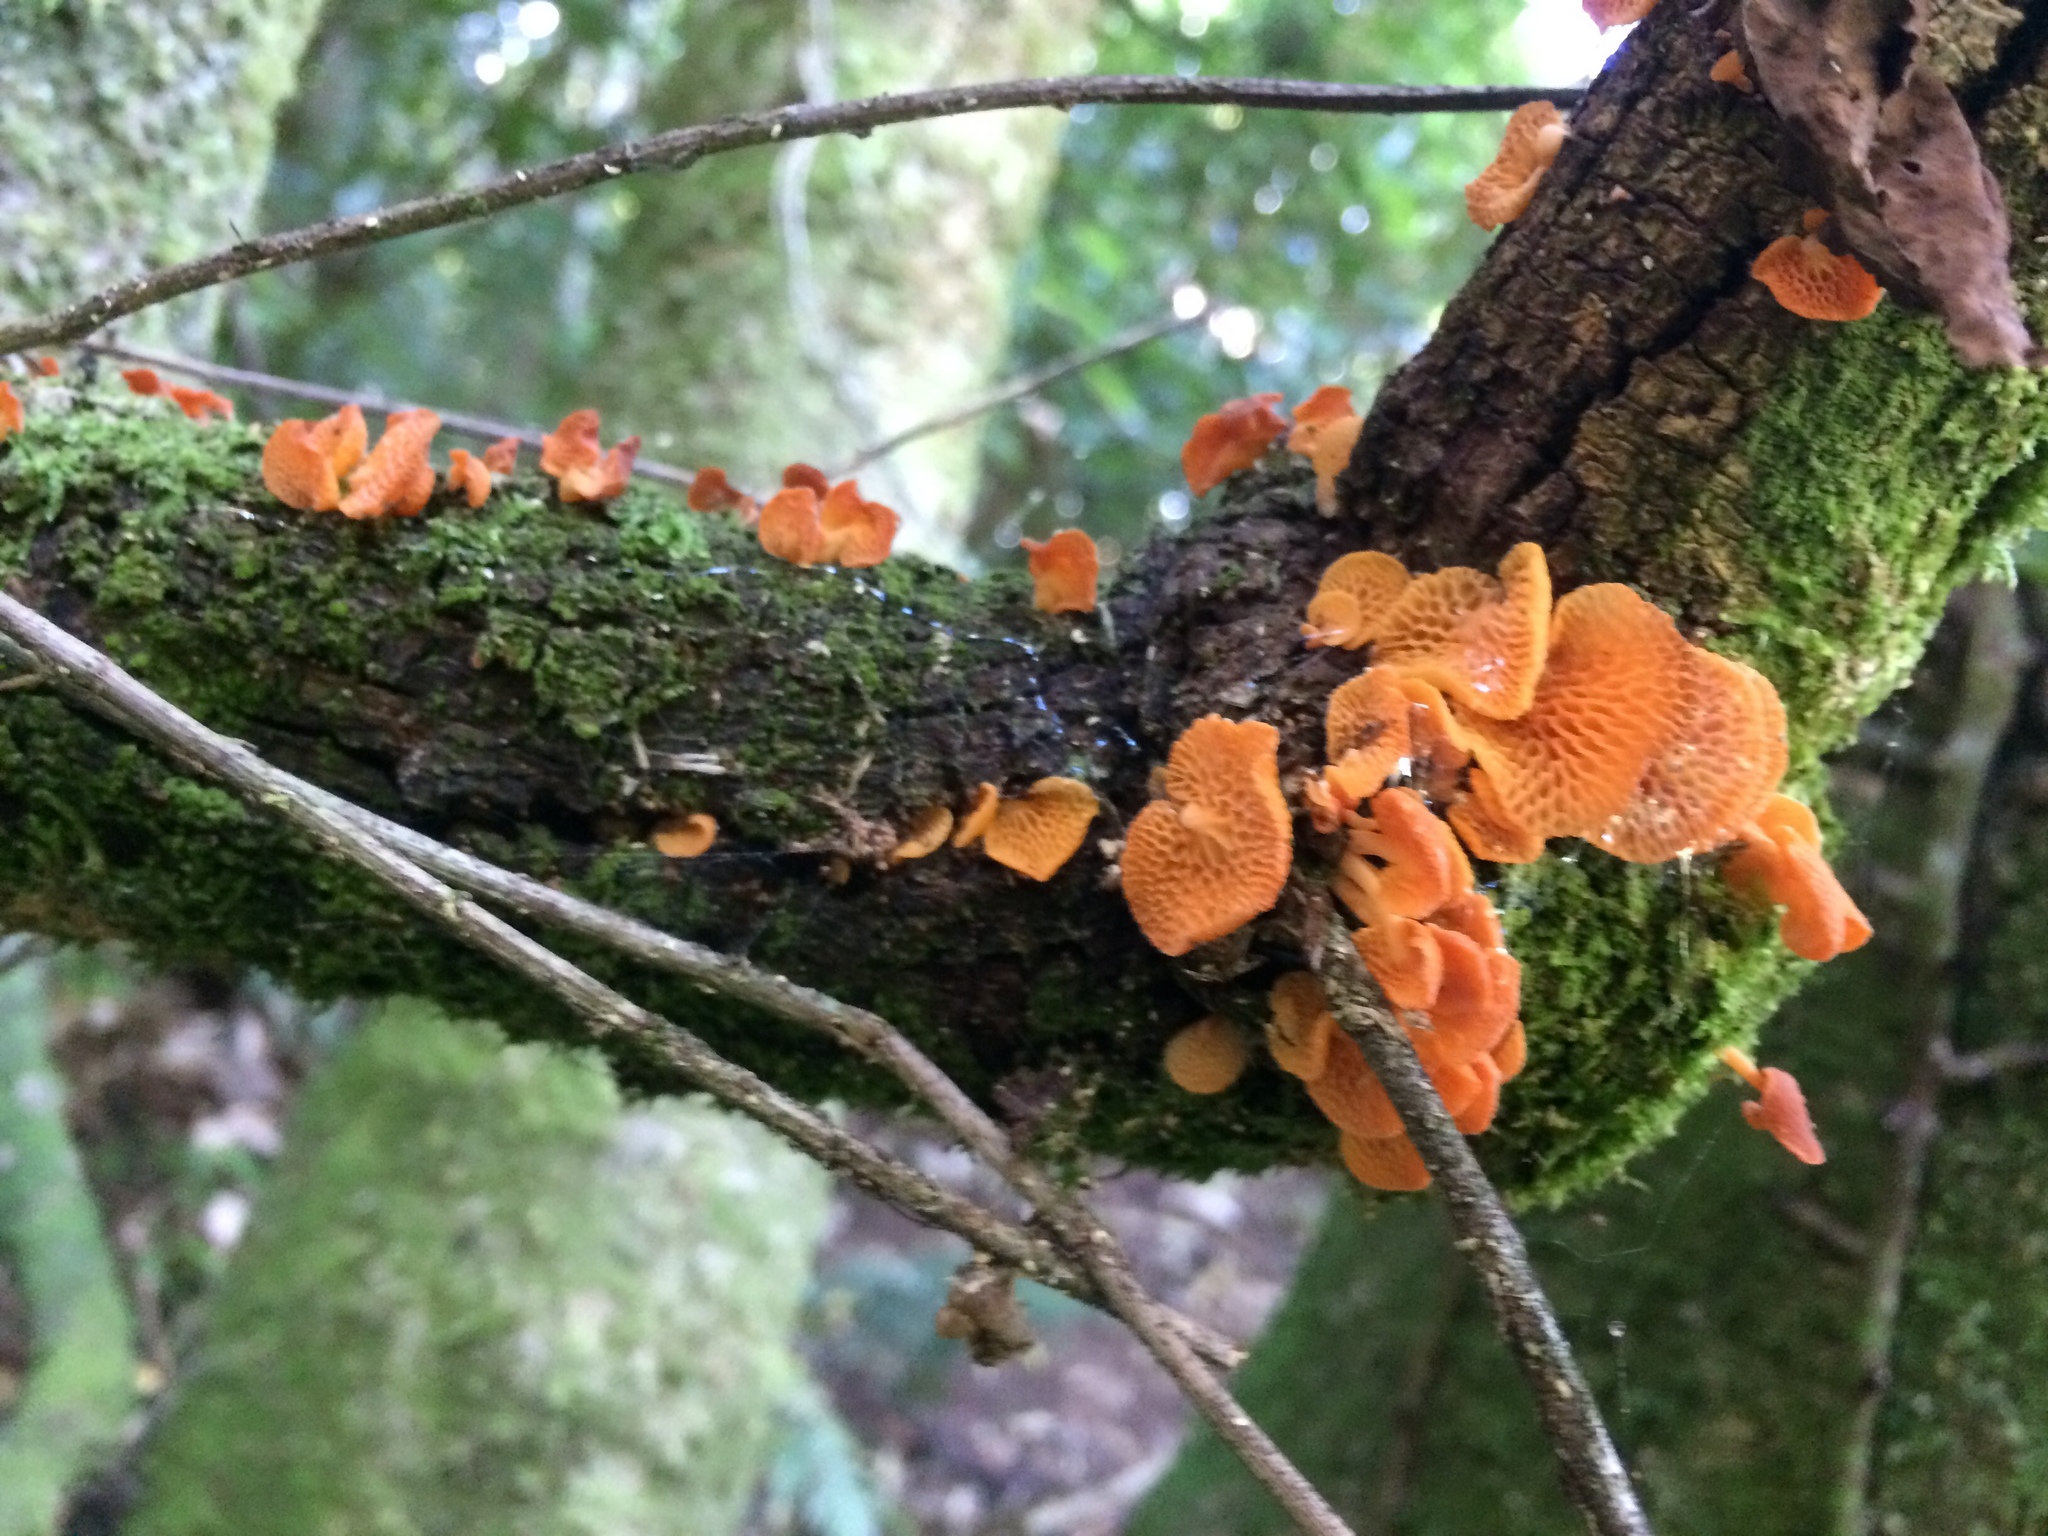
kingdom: Fungi
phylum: Basidiomycota
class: Agaricomycetes
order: Agaricales
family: Mycenaceae
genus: Favolaschia
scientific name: Favolaschia claudopus
